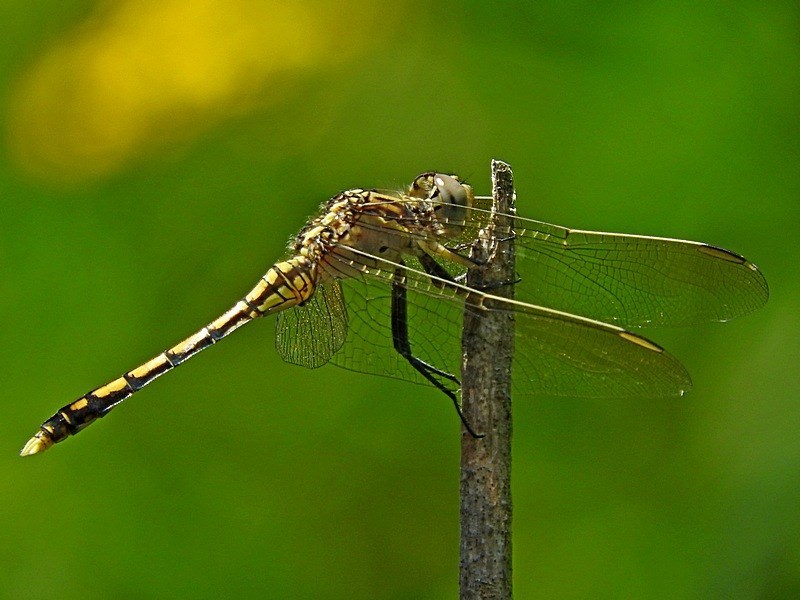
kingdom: Animalia
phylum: Arthropoda
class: Insecta
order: Odonata
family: Libellulidae
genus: Orthetrum
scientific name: Orthetrum caledonicum
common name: Blue skimmer
